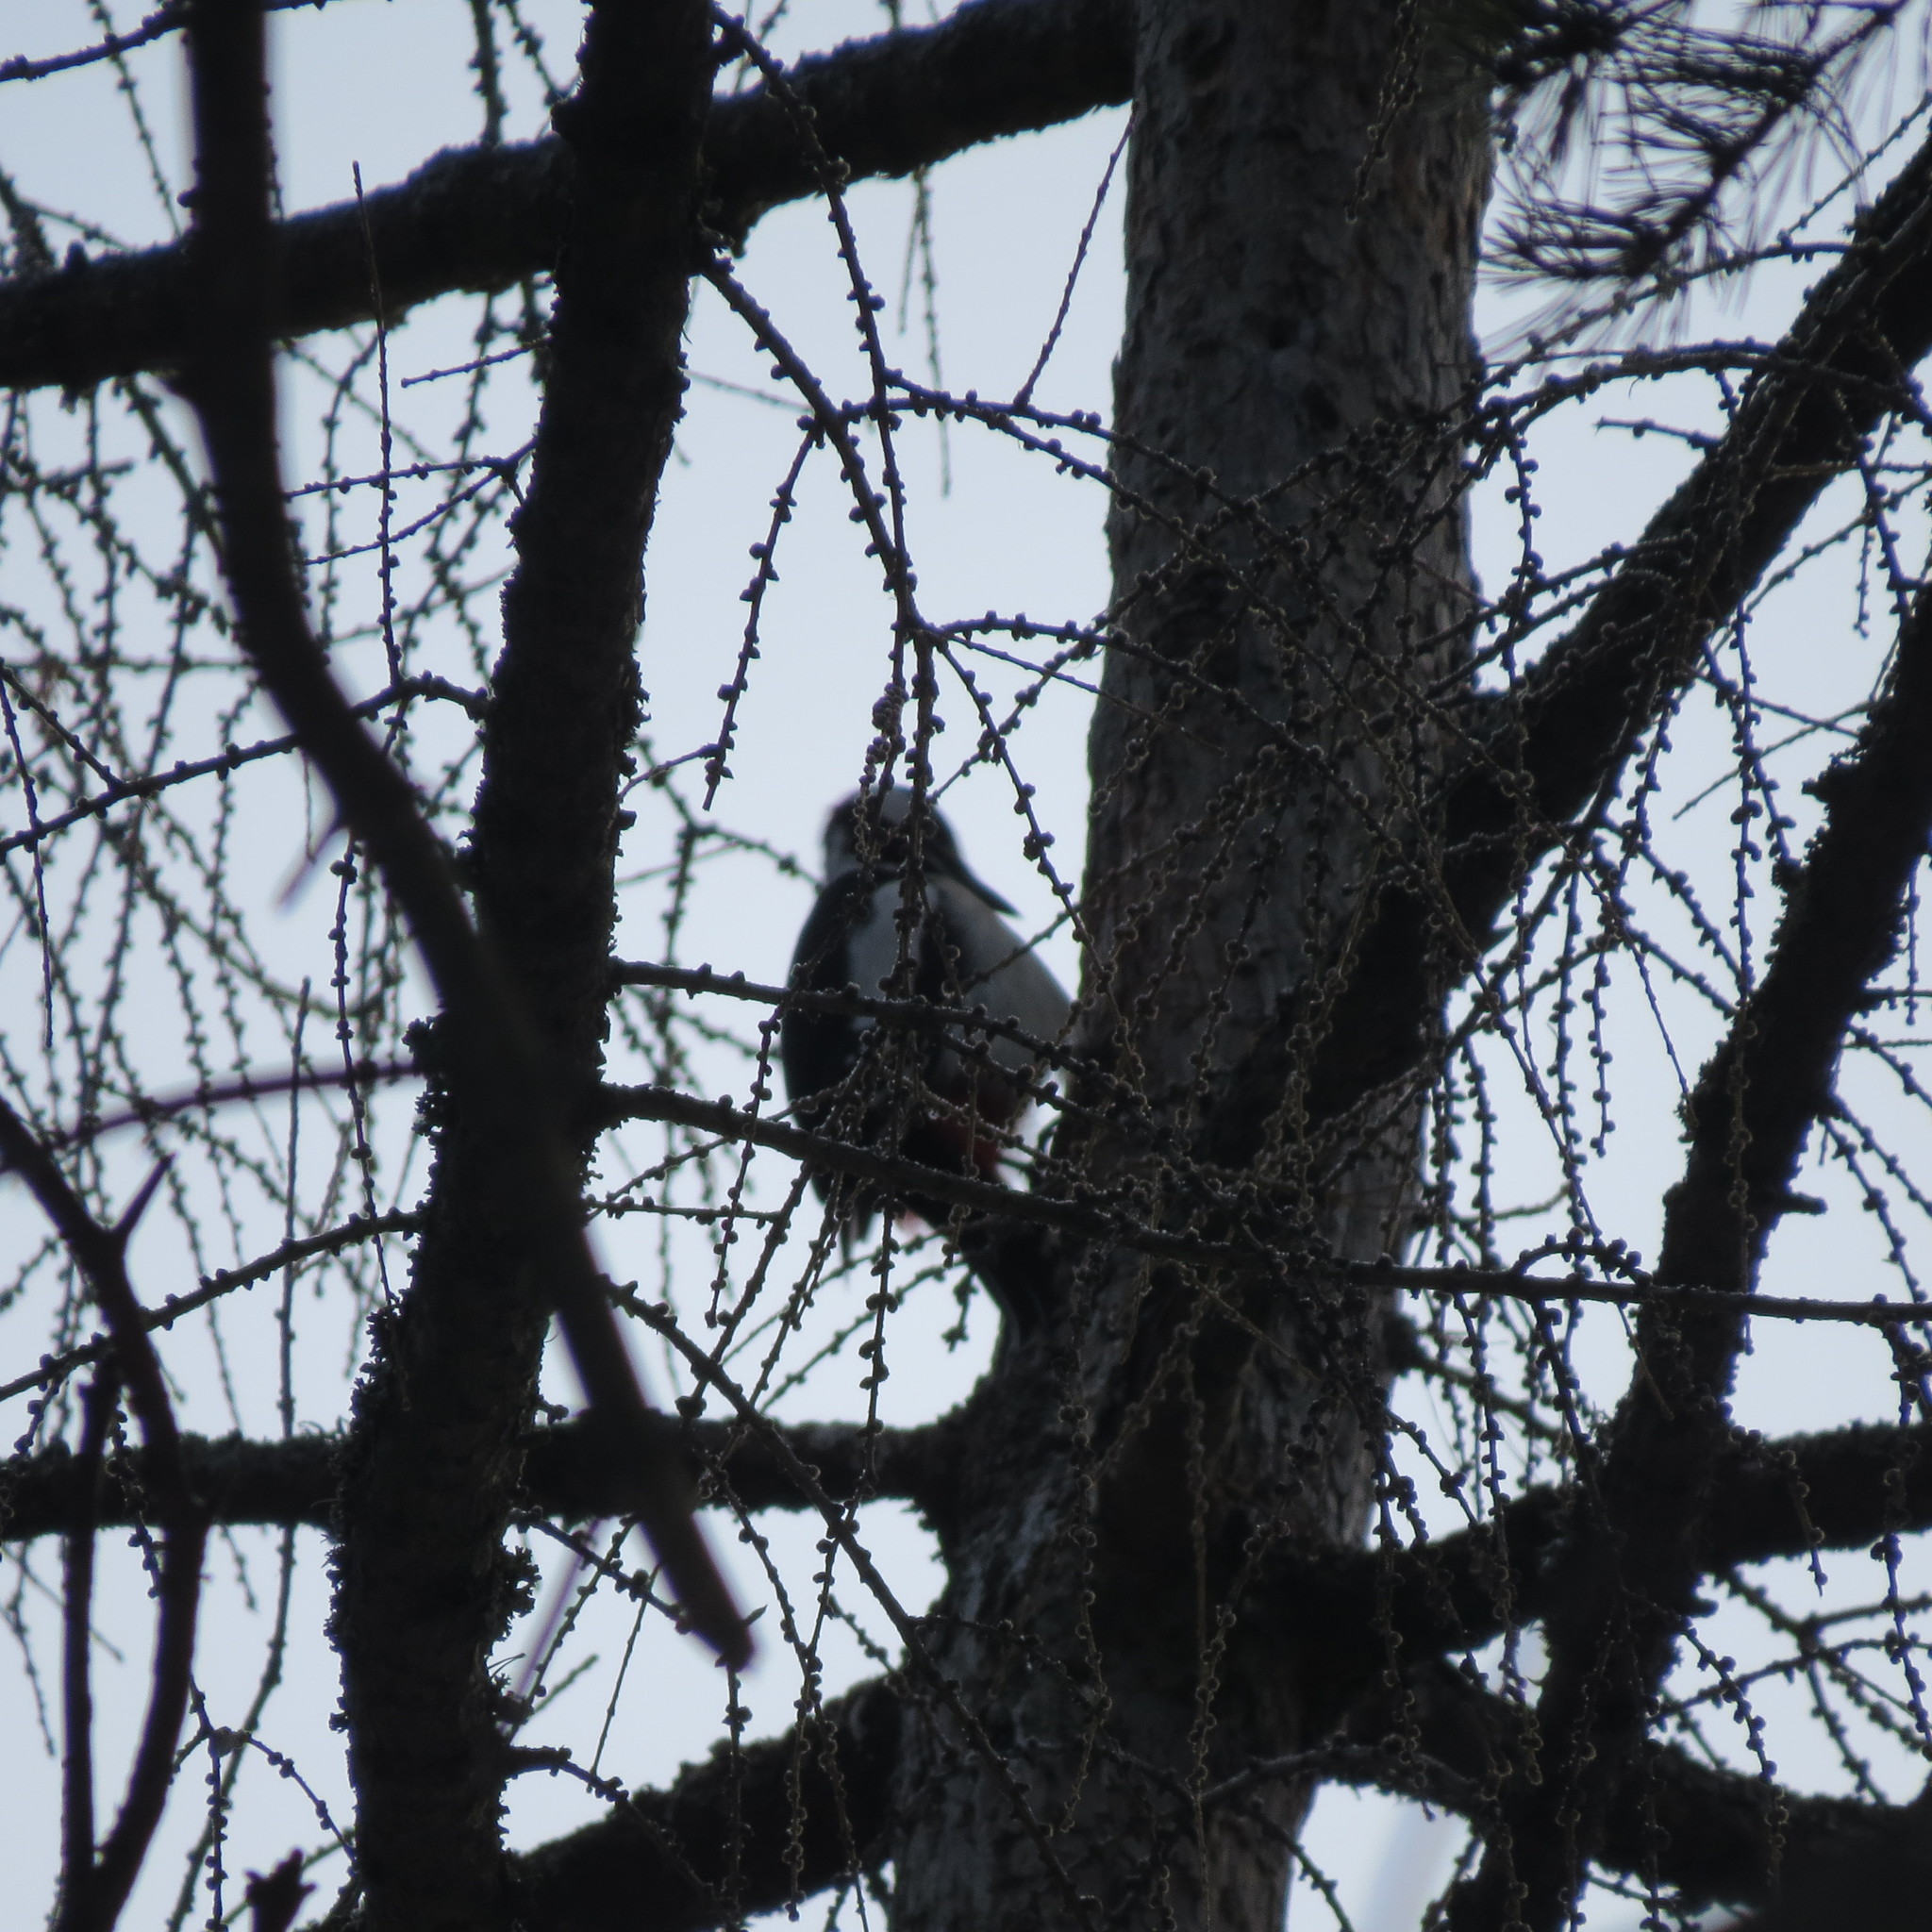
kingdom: Animalia
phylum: Chordata
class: Aves
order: Piciformes
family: Picidae
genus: Dendrocopos
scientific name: Dendrocopos major
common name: Great spotted woodpecker
